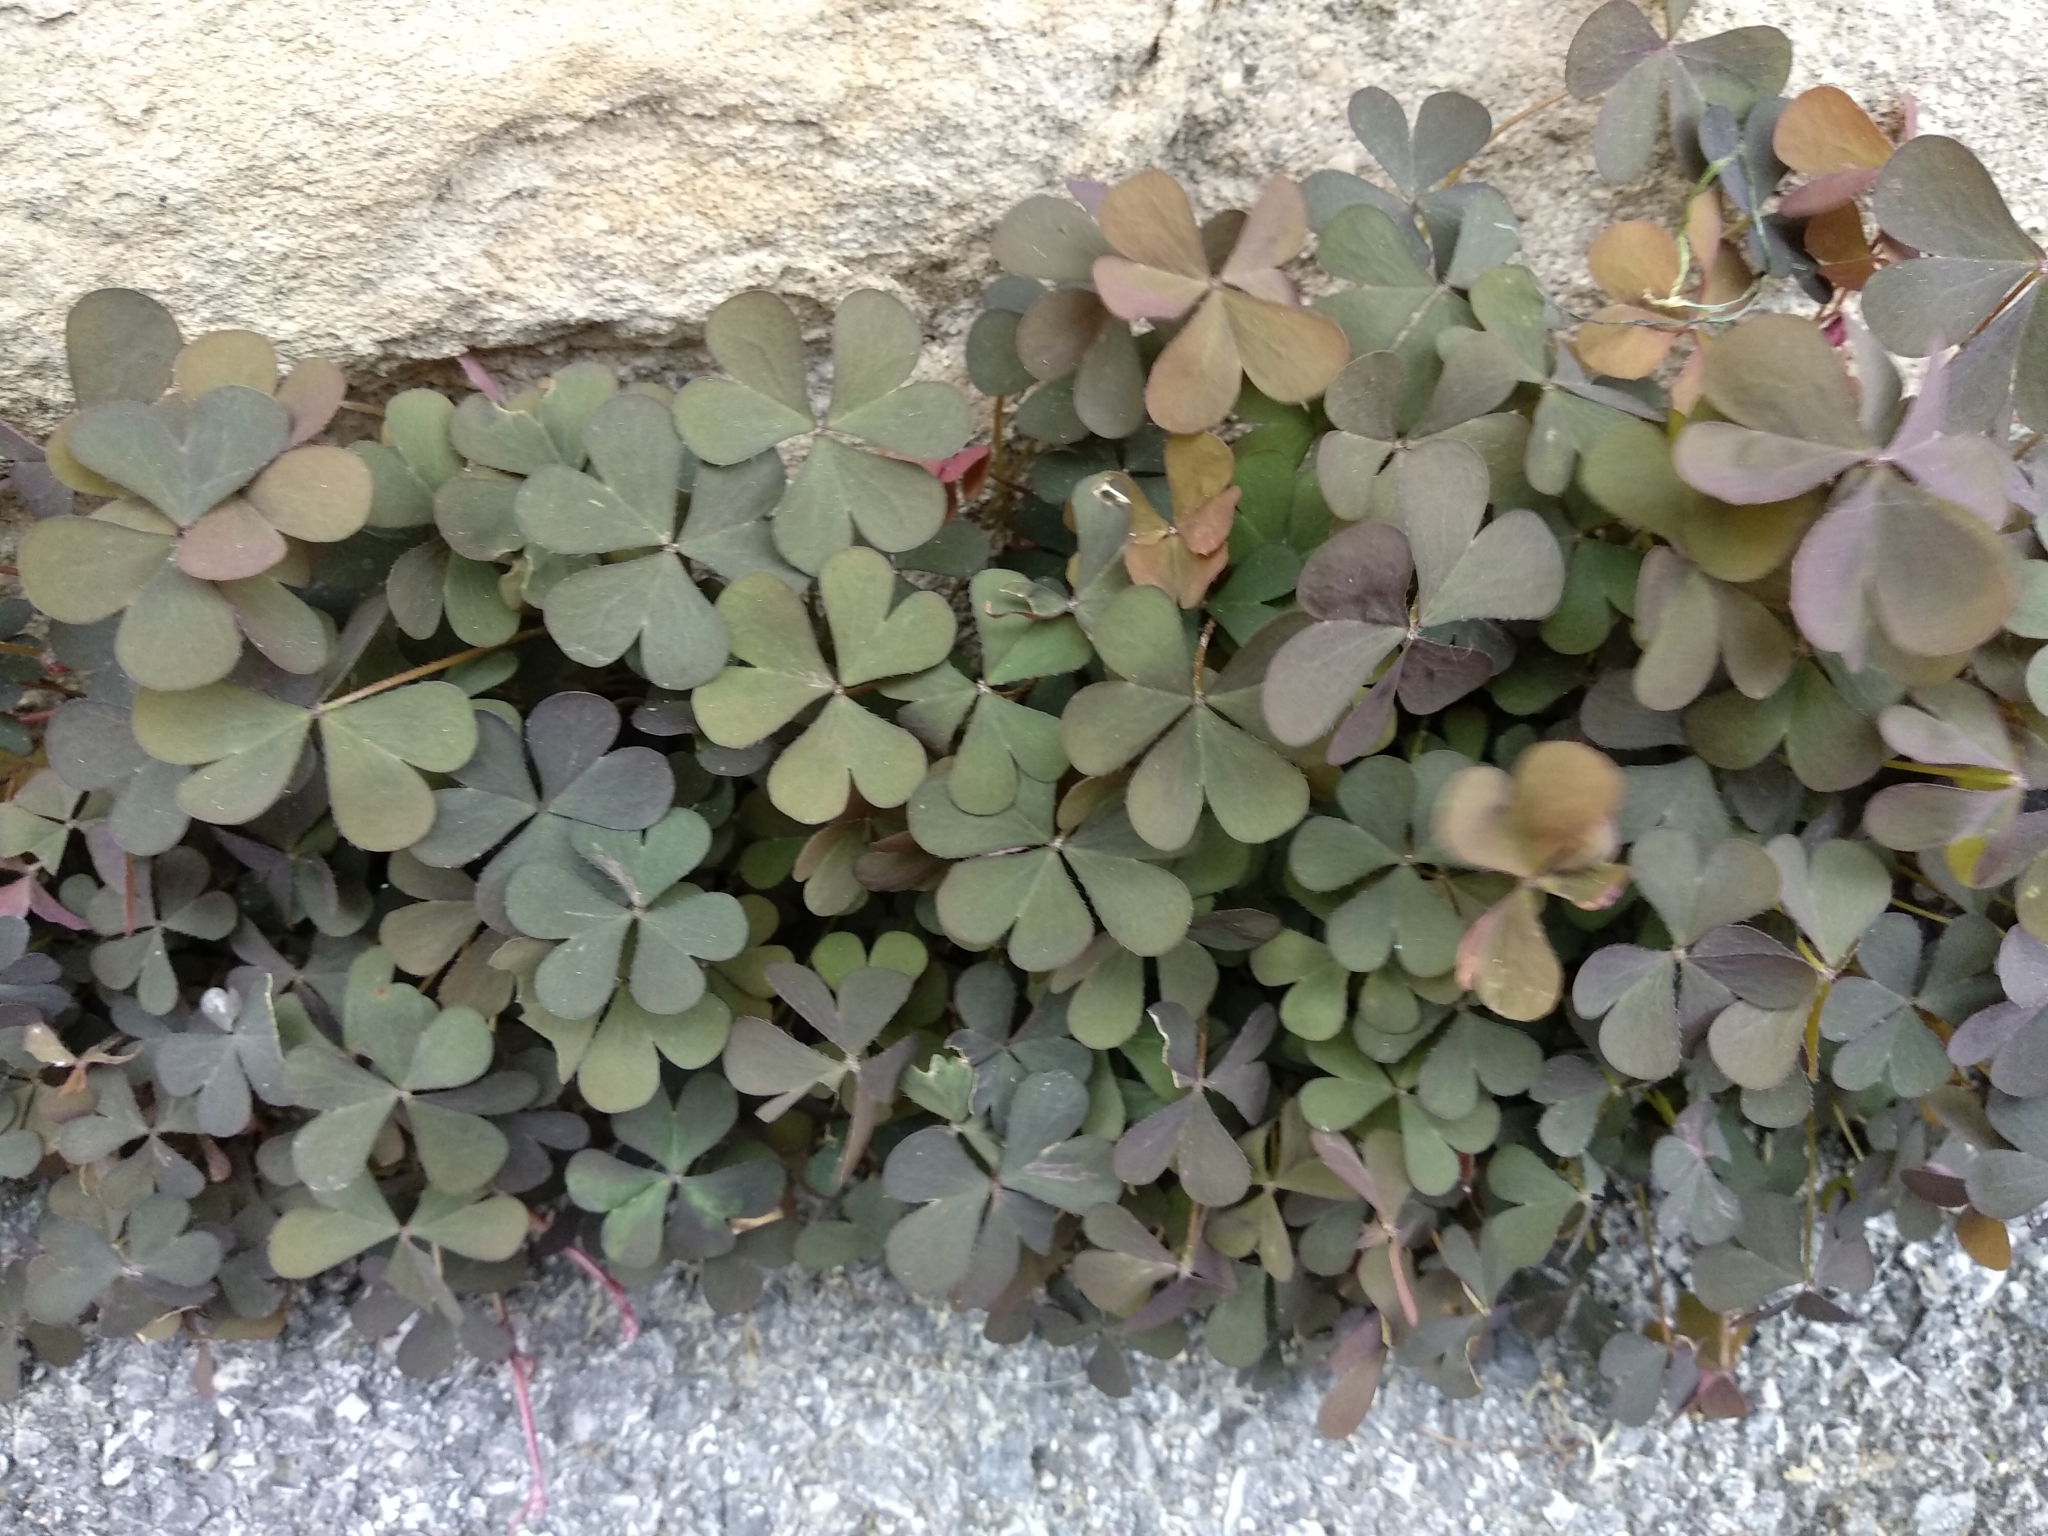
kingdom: Plantae
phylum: Tracheophyta
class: Magnoliopsida
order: Oxalidales
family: Oxalidaceae
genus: Oxalis
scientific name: Oxalis corniculata
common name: Procumbent yellow-sorrel
